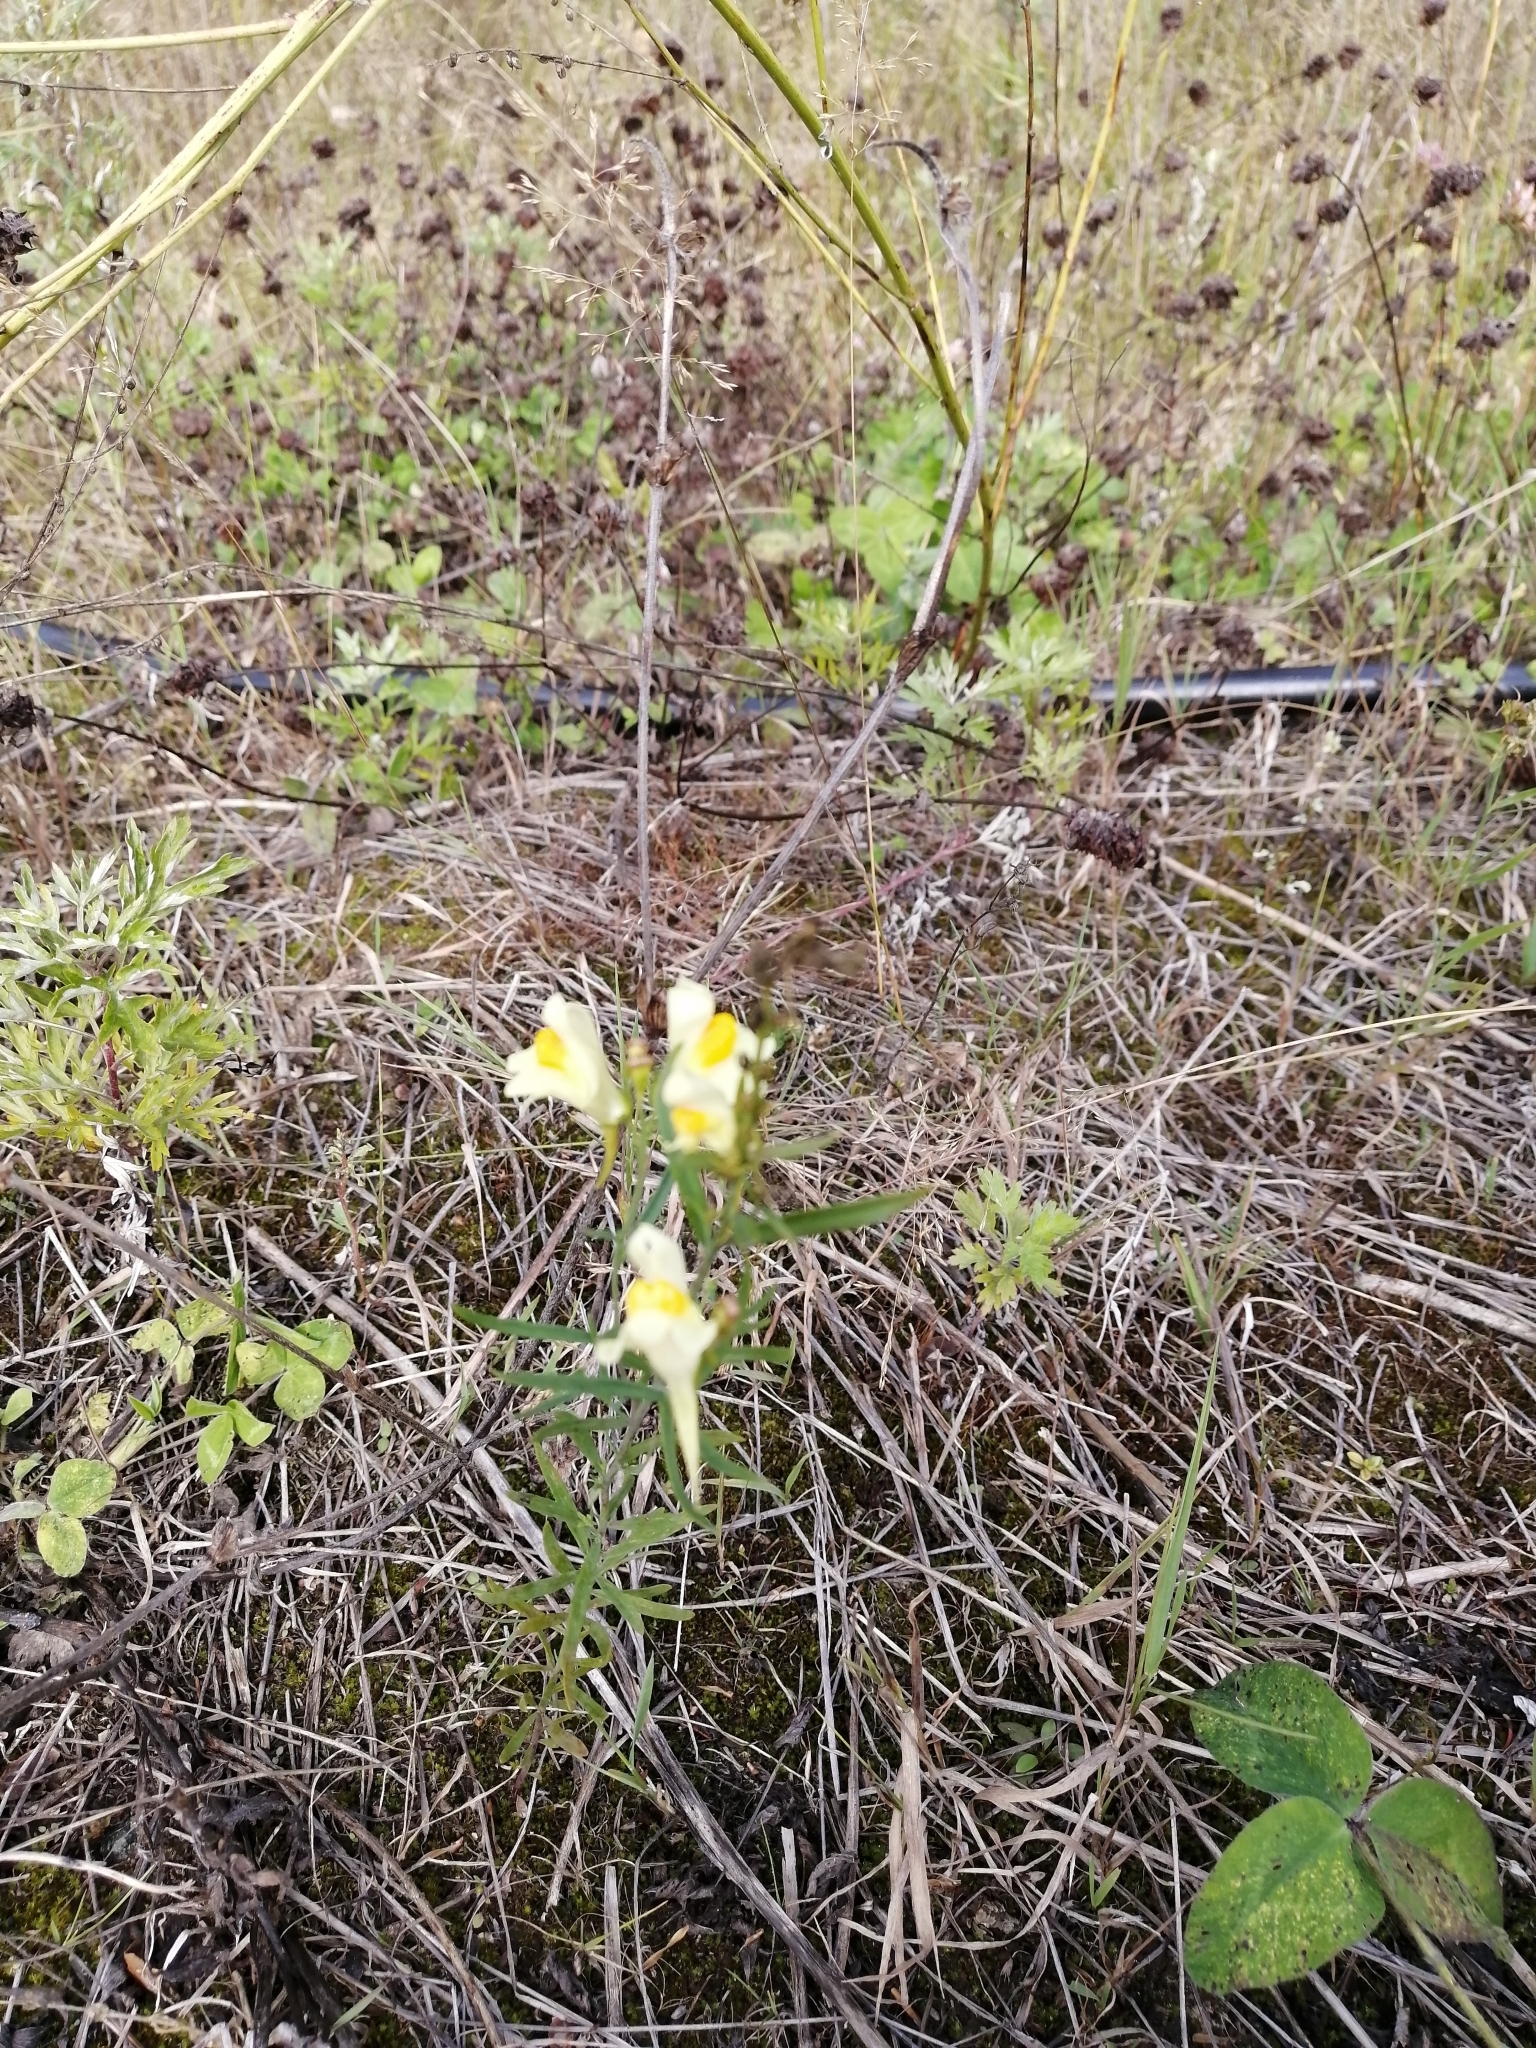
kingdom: Plantae
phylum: Tracheophyta
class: Magnoliopsida
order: Lamiales
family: Plantaginaceae
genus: Linaria
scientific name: Linaria vulgaris
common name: Butter and eggs
